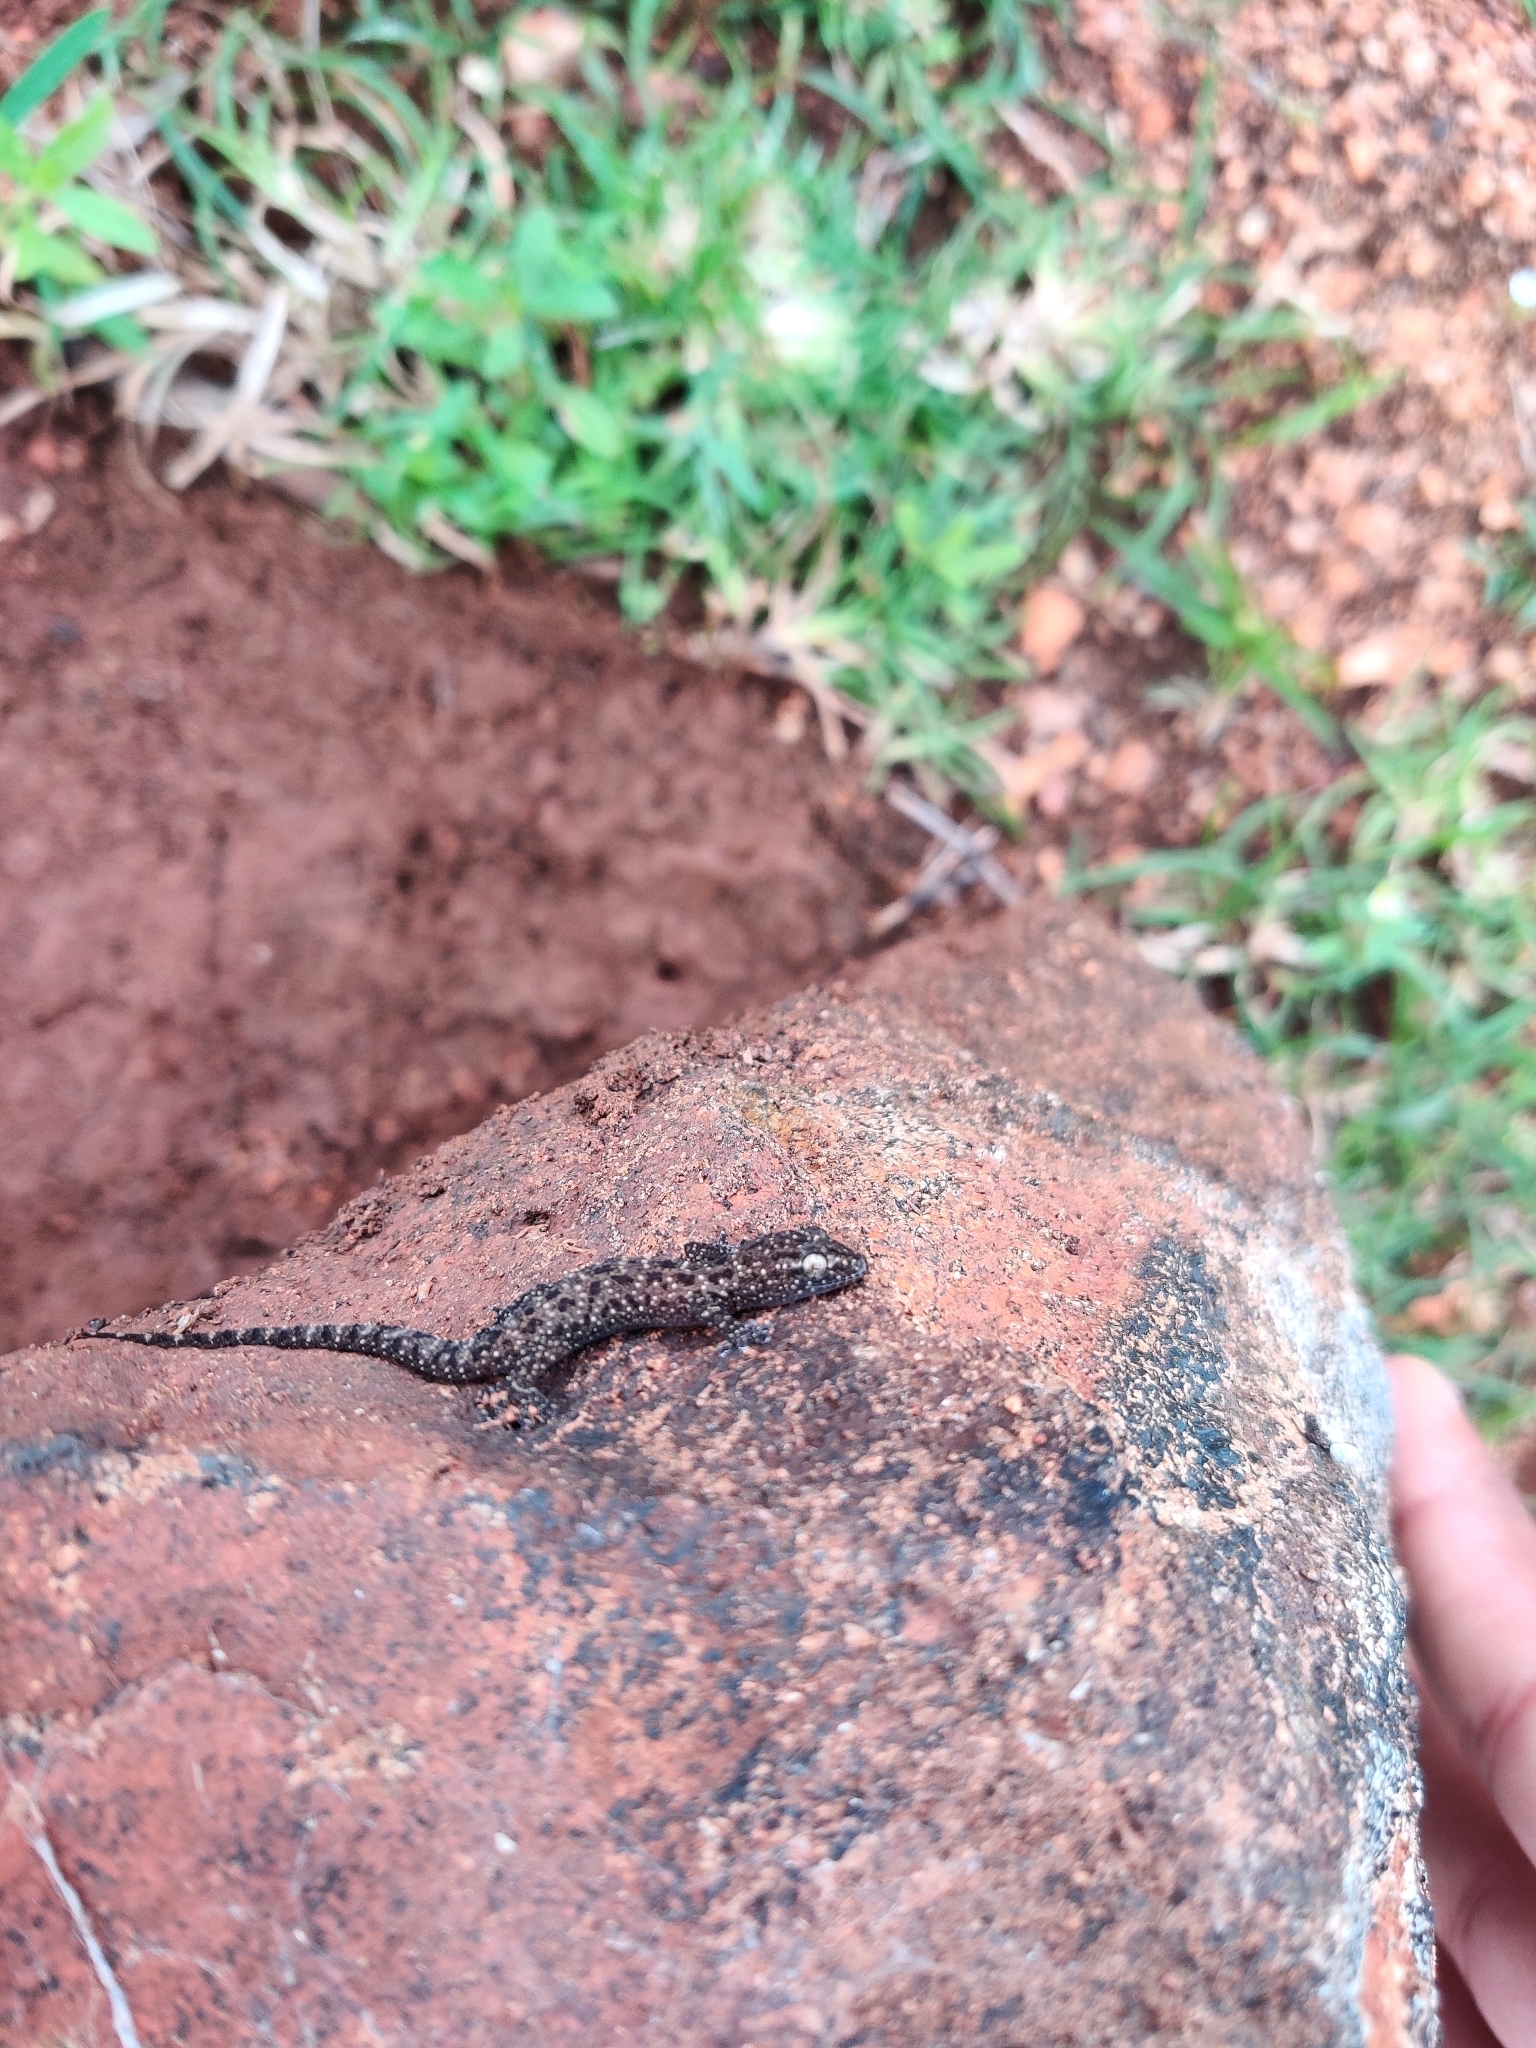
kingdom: Animalia
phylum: Chordata
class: Squamata
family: Gekkonidae
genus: Hemidactylus
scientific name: Hemidactylus parvimaculatus
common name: Spotted house gecko
